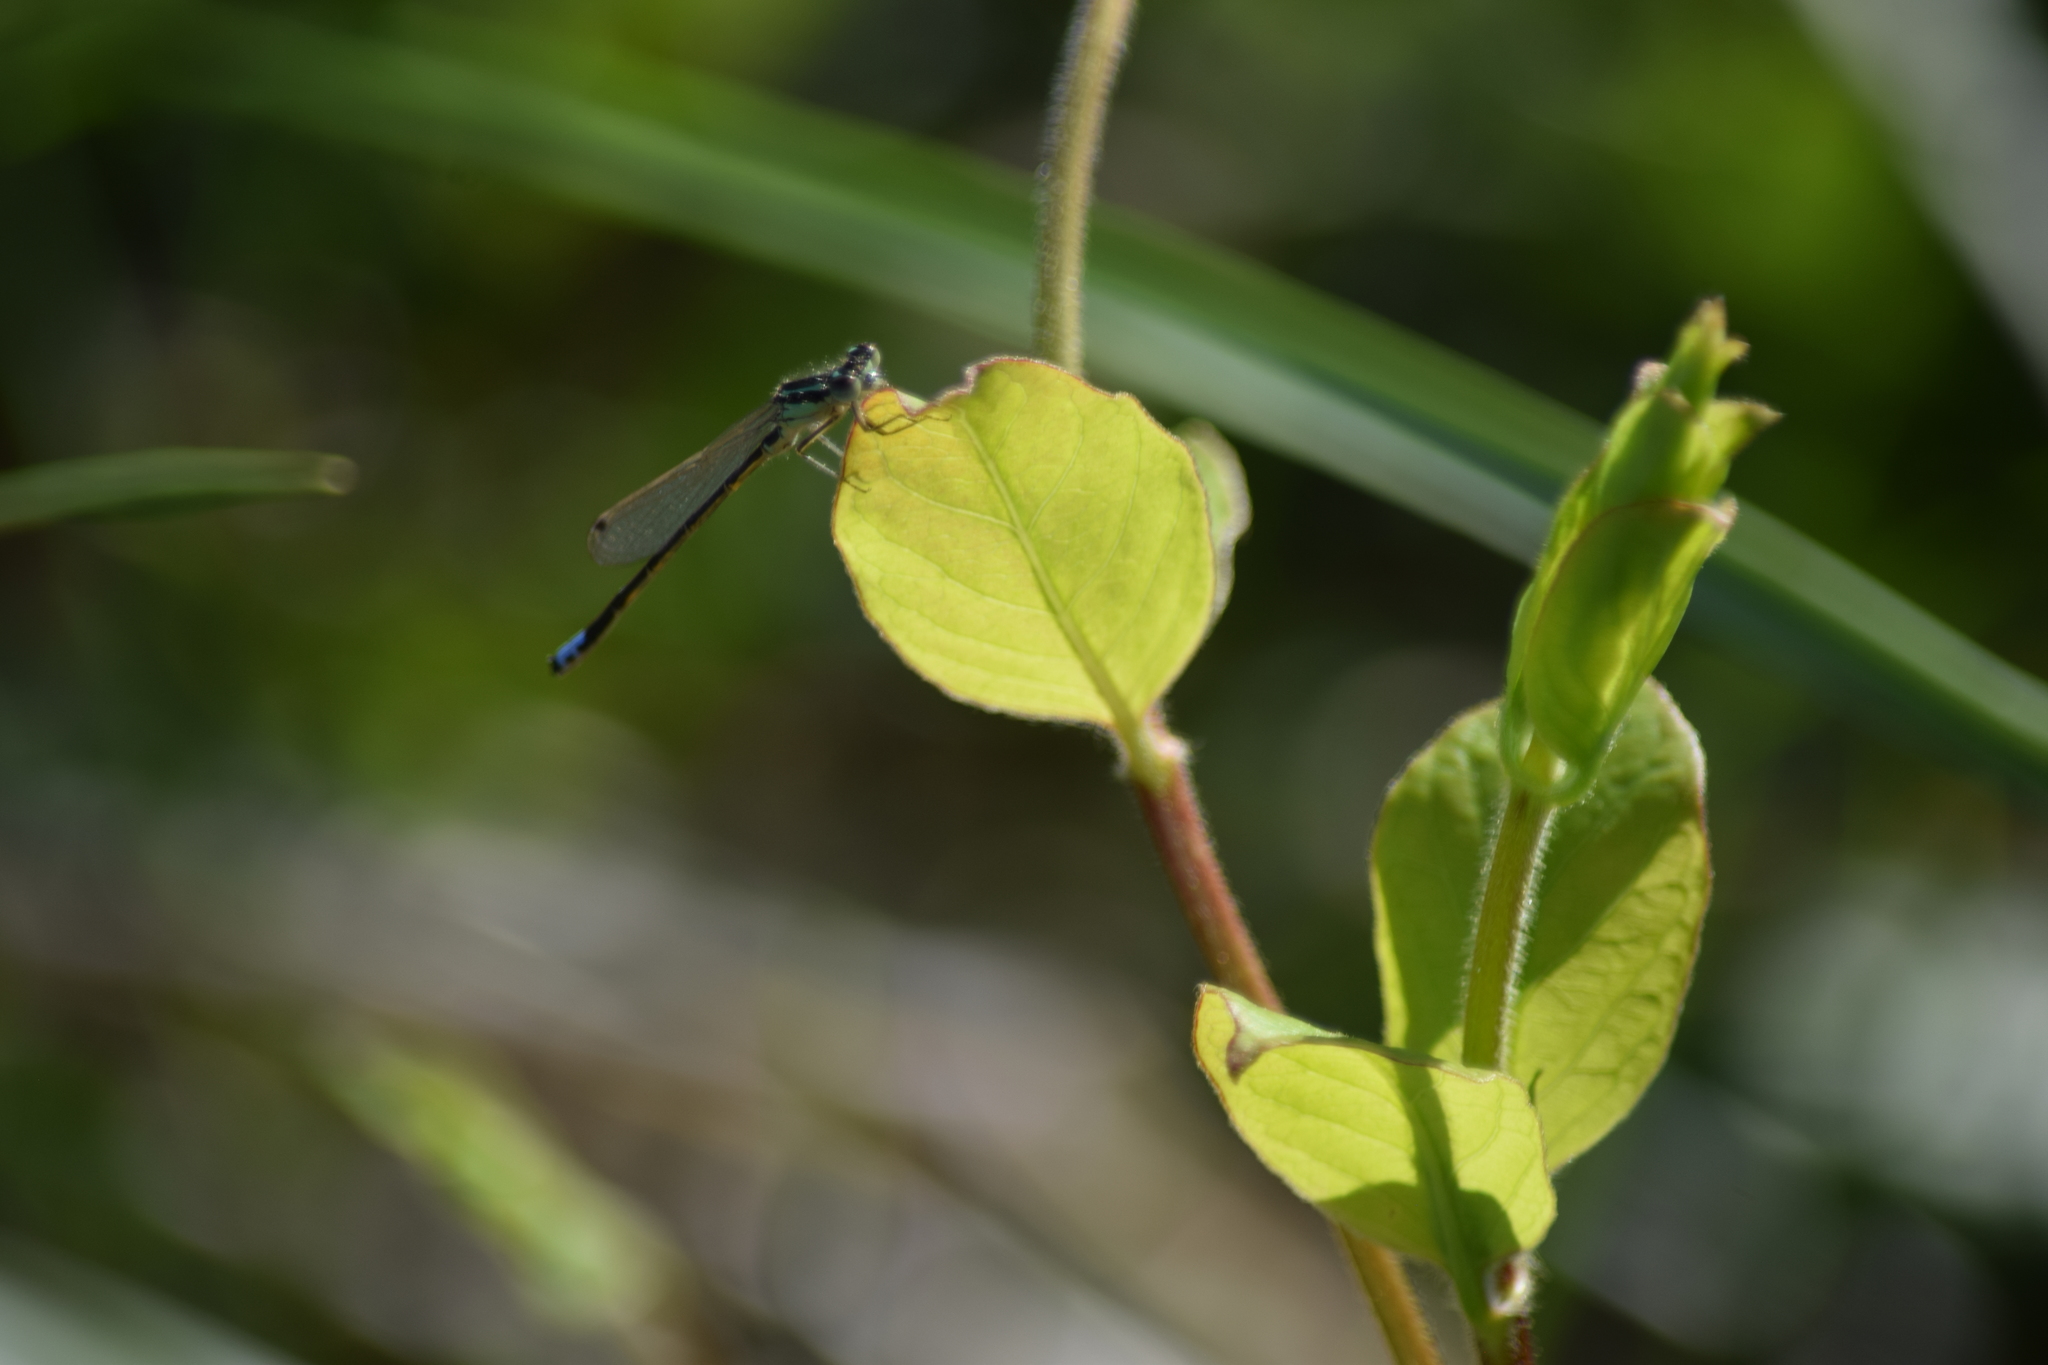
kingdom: Animalia
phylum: Arthropoda
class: Insecta
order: Odonata
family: Coenagrionidae
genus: Ischnura
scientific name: Ischnura verticalis
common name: Eastern forktail
